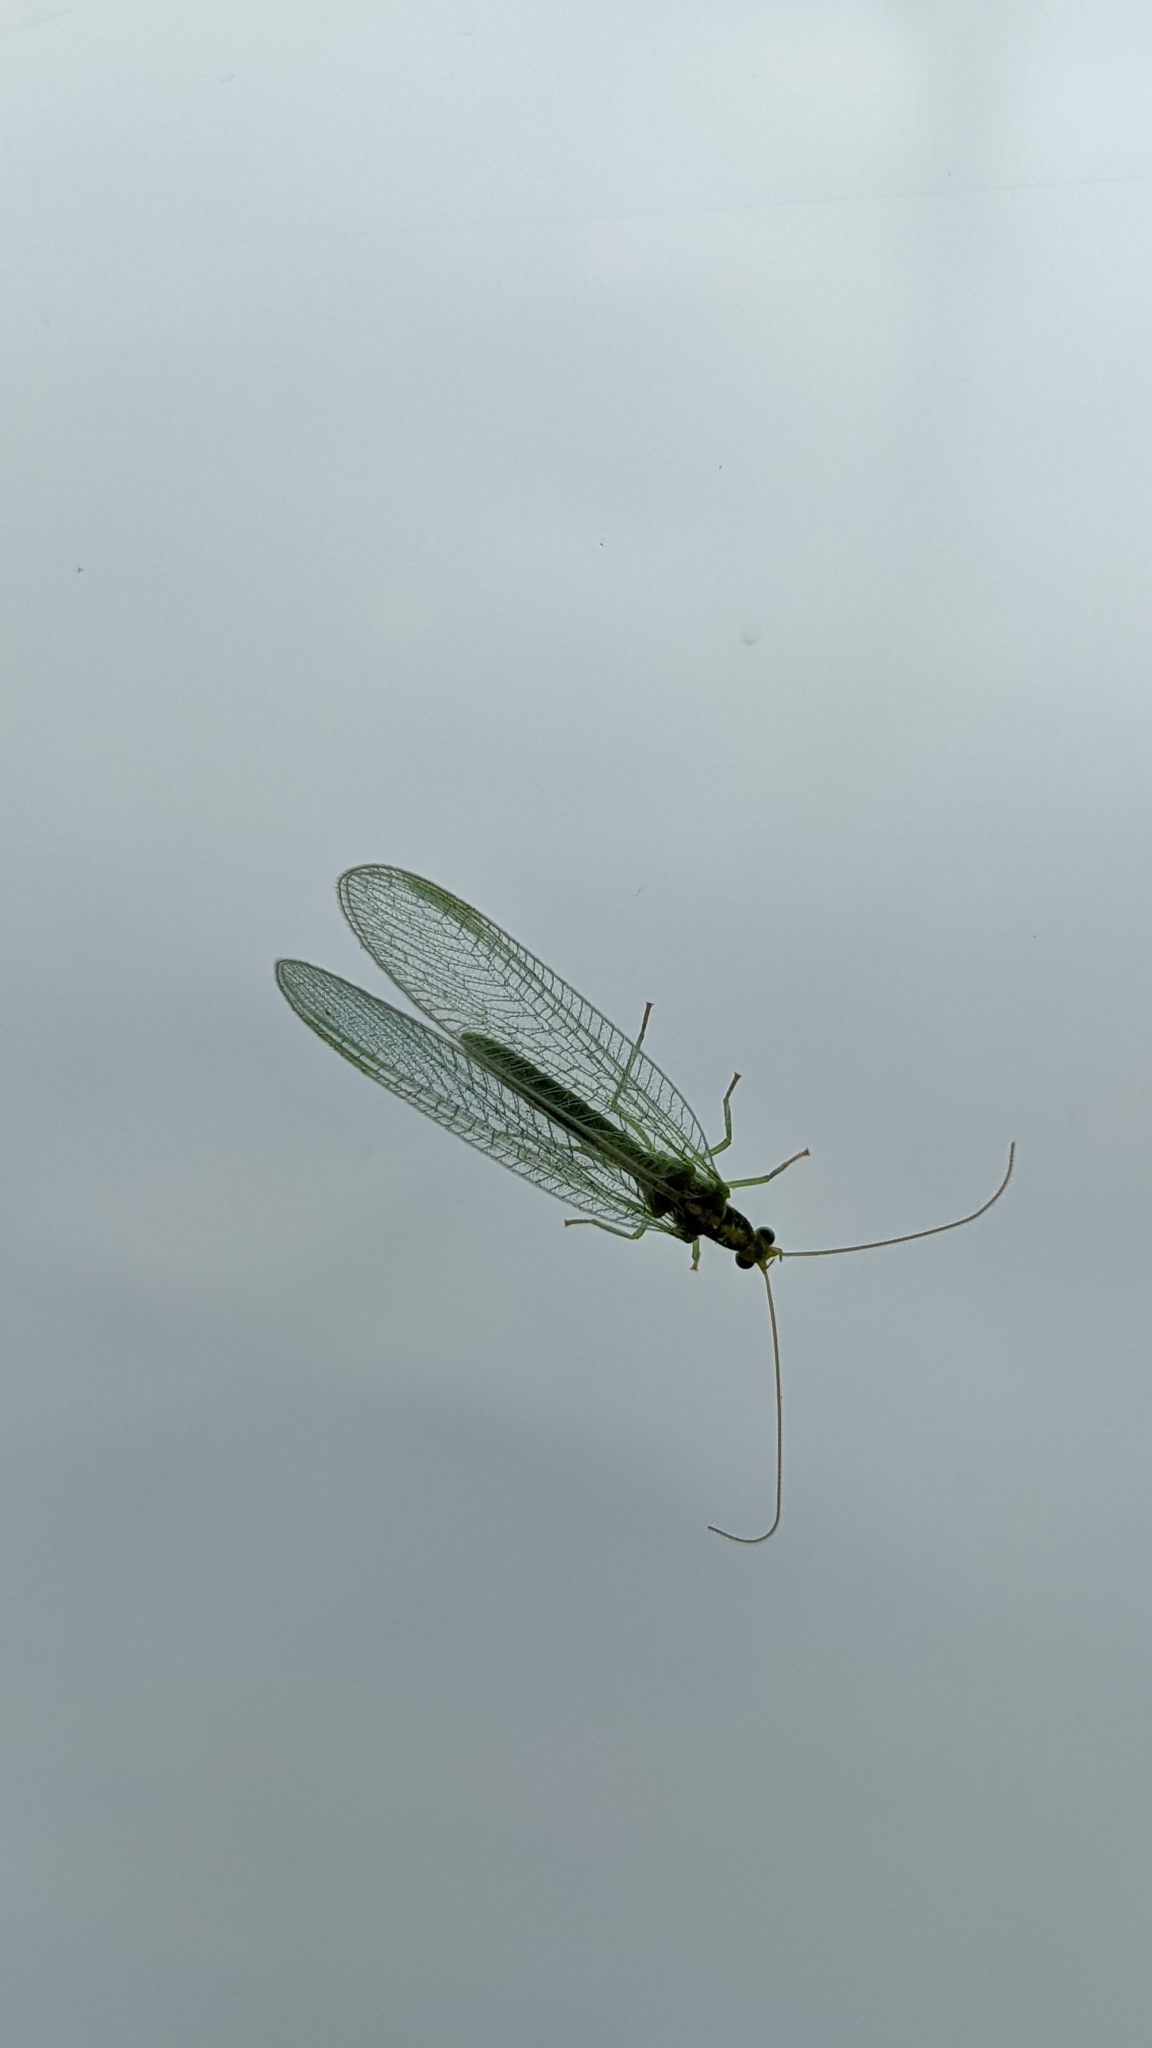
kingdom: Animalia
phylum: Arthropoda
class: Insecta
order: Neuroptera
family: Chrysopidae
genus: Chrysoperla
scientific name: Chrysoperla
